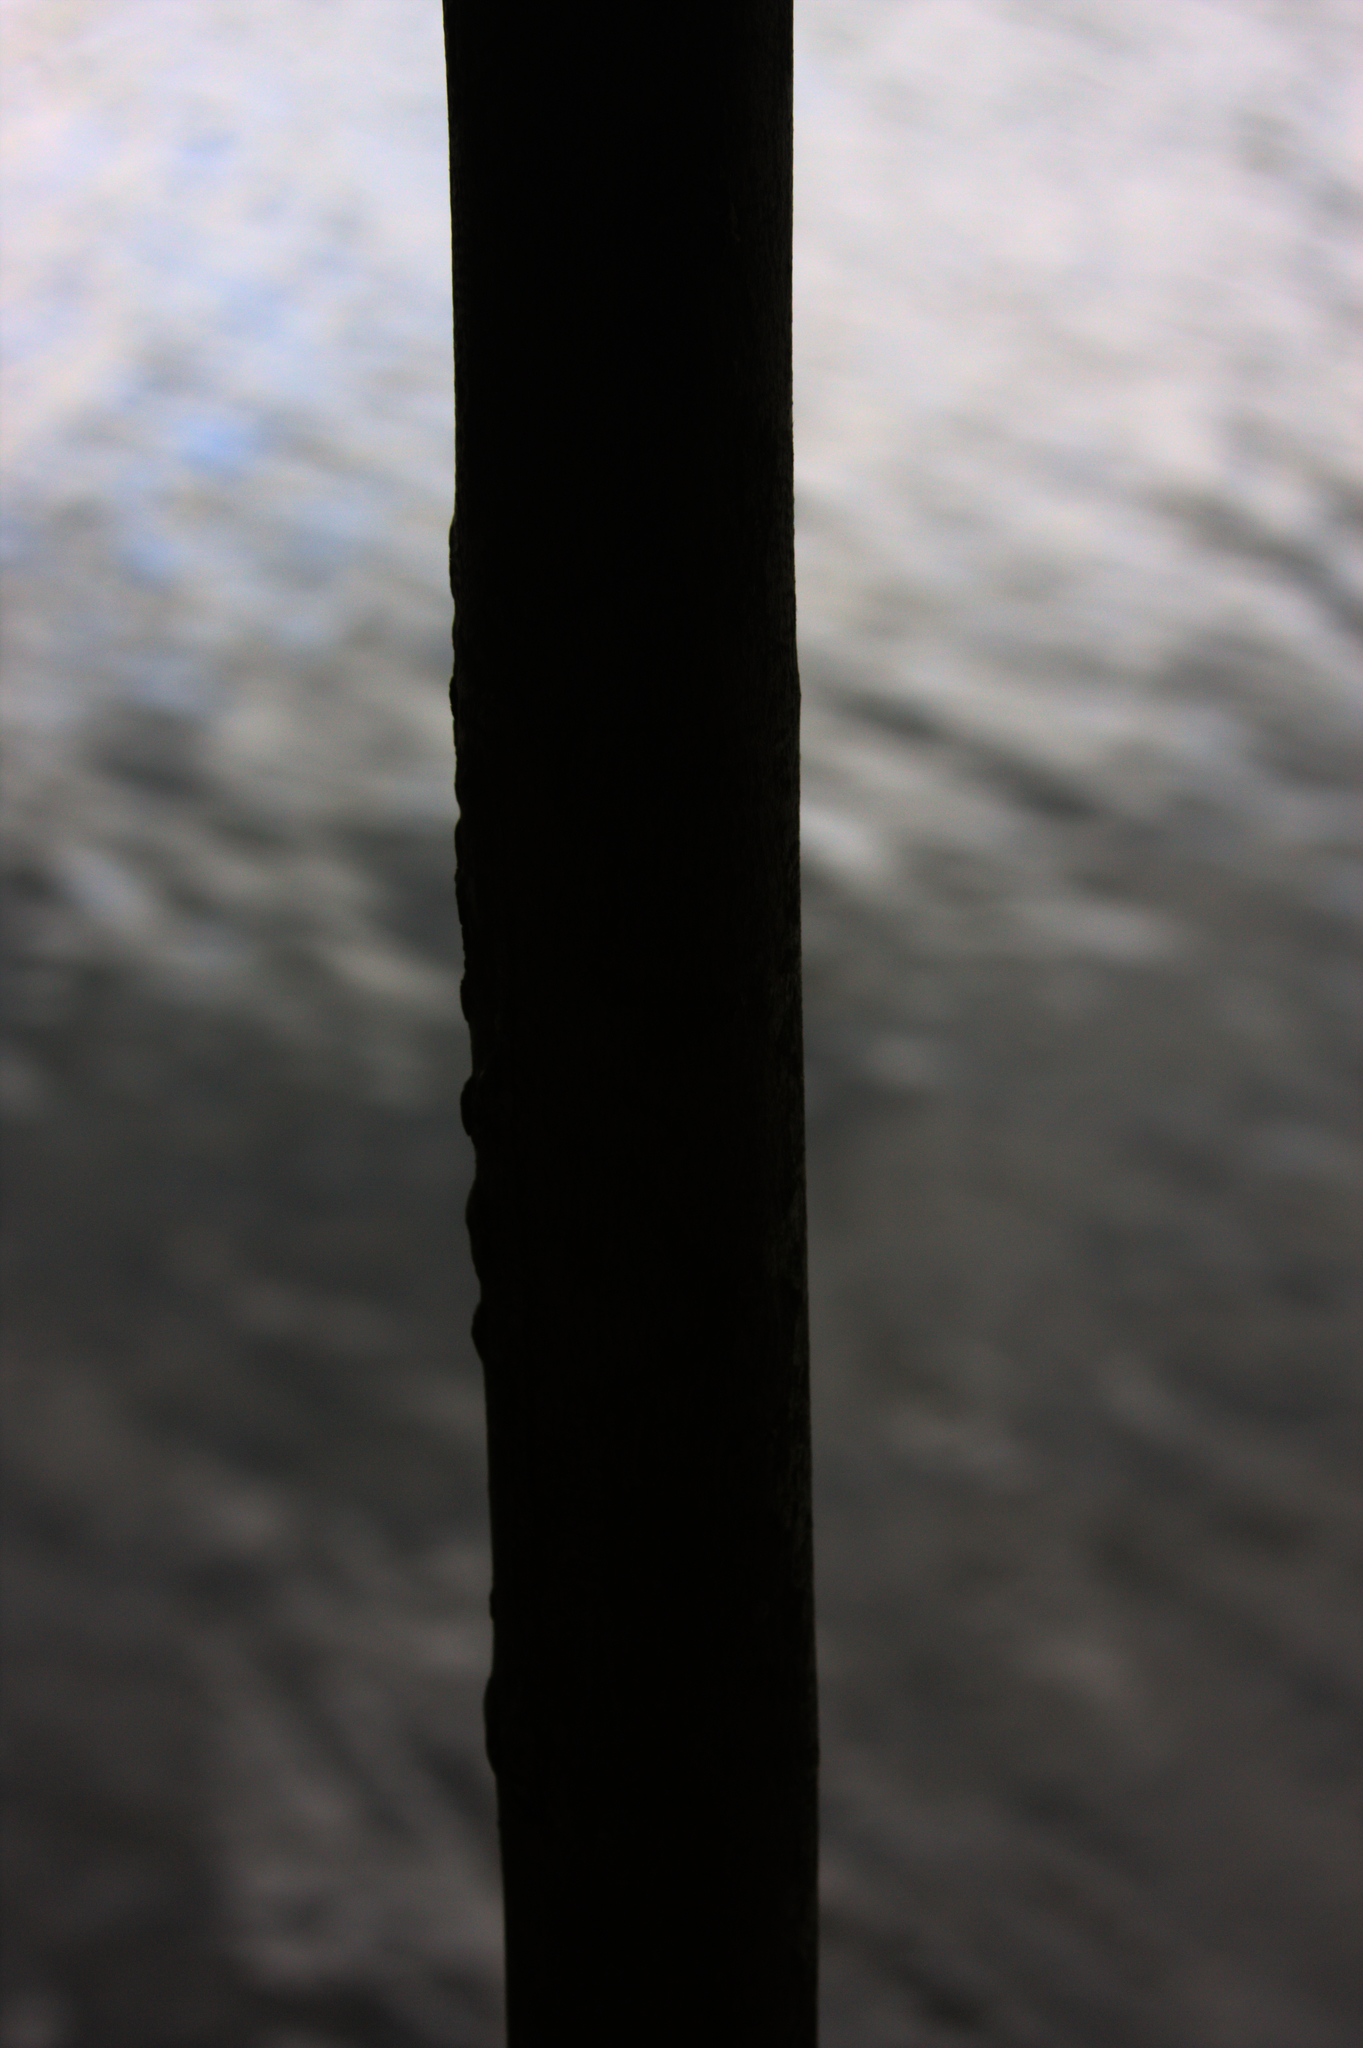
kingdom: Plantae
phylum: Tracheophyta
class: Magnoliopsida
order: Sapindales
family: Sapindaceae
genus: Acer
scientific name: Acer rubrum
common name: Red maple
